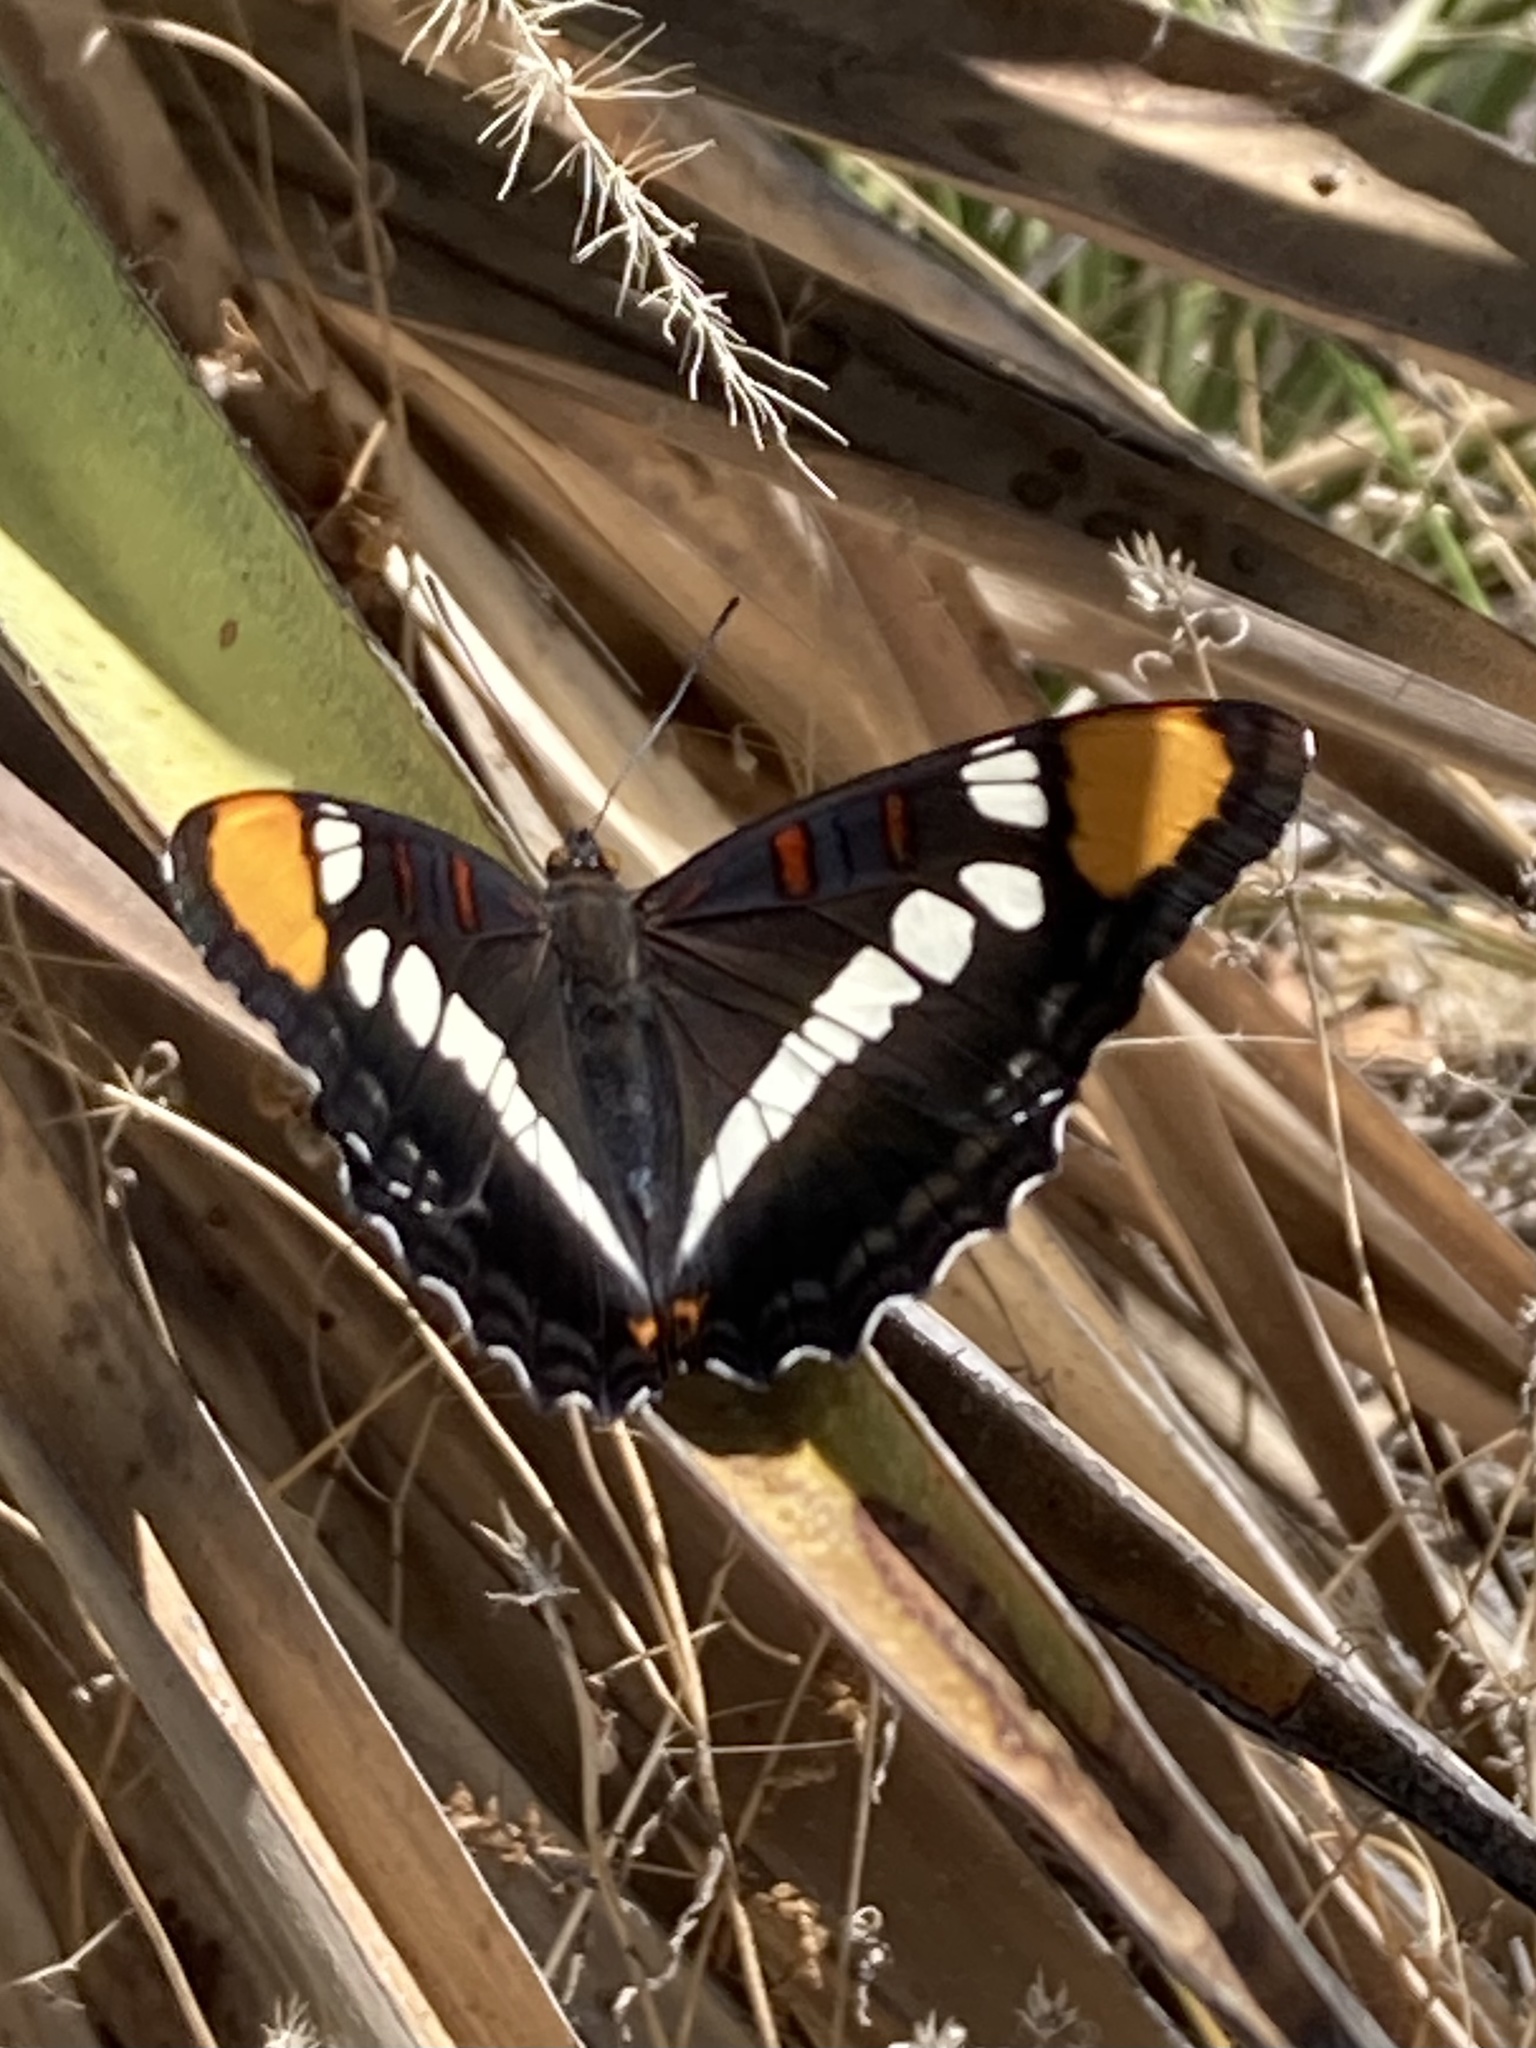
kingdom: Animalia
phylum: Arthropoda
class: Insecta
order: Lepidoptera
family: Nymphalidae
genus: Limenitis
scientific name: Limenitis bredowii
